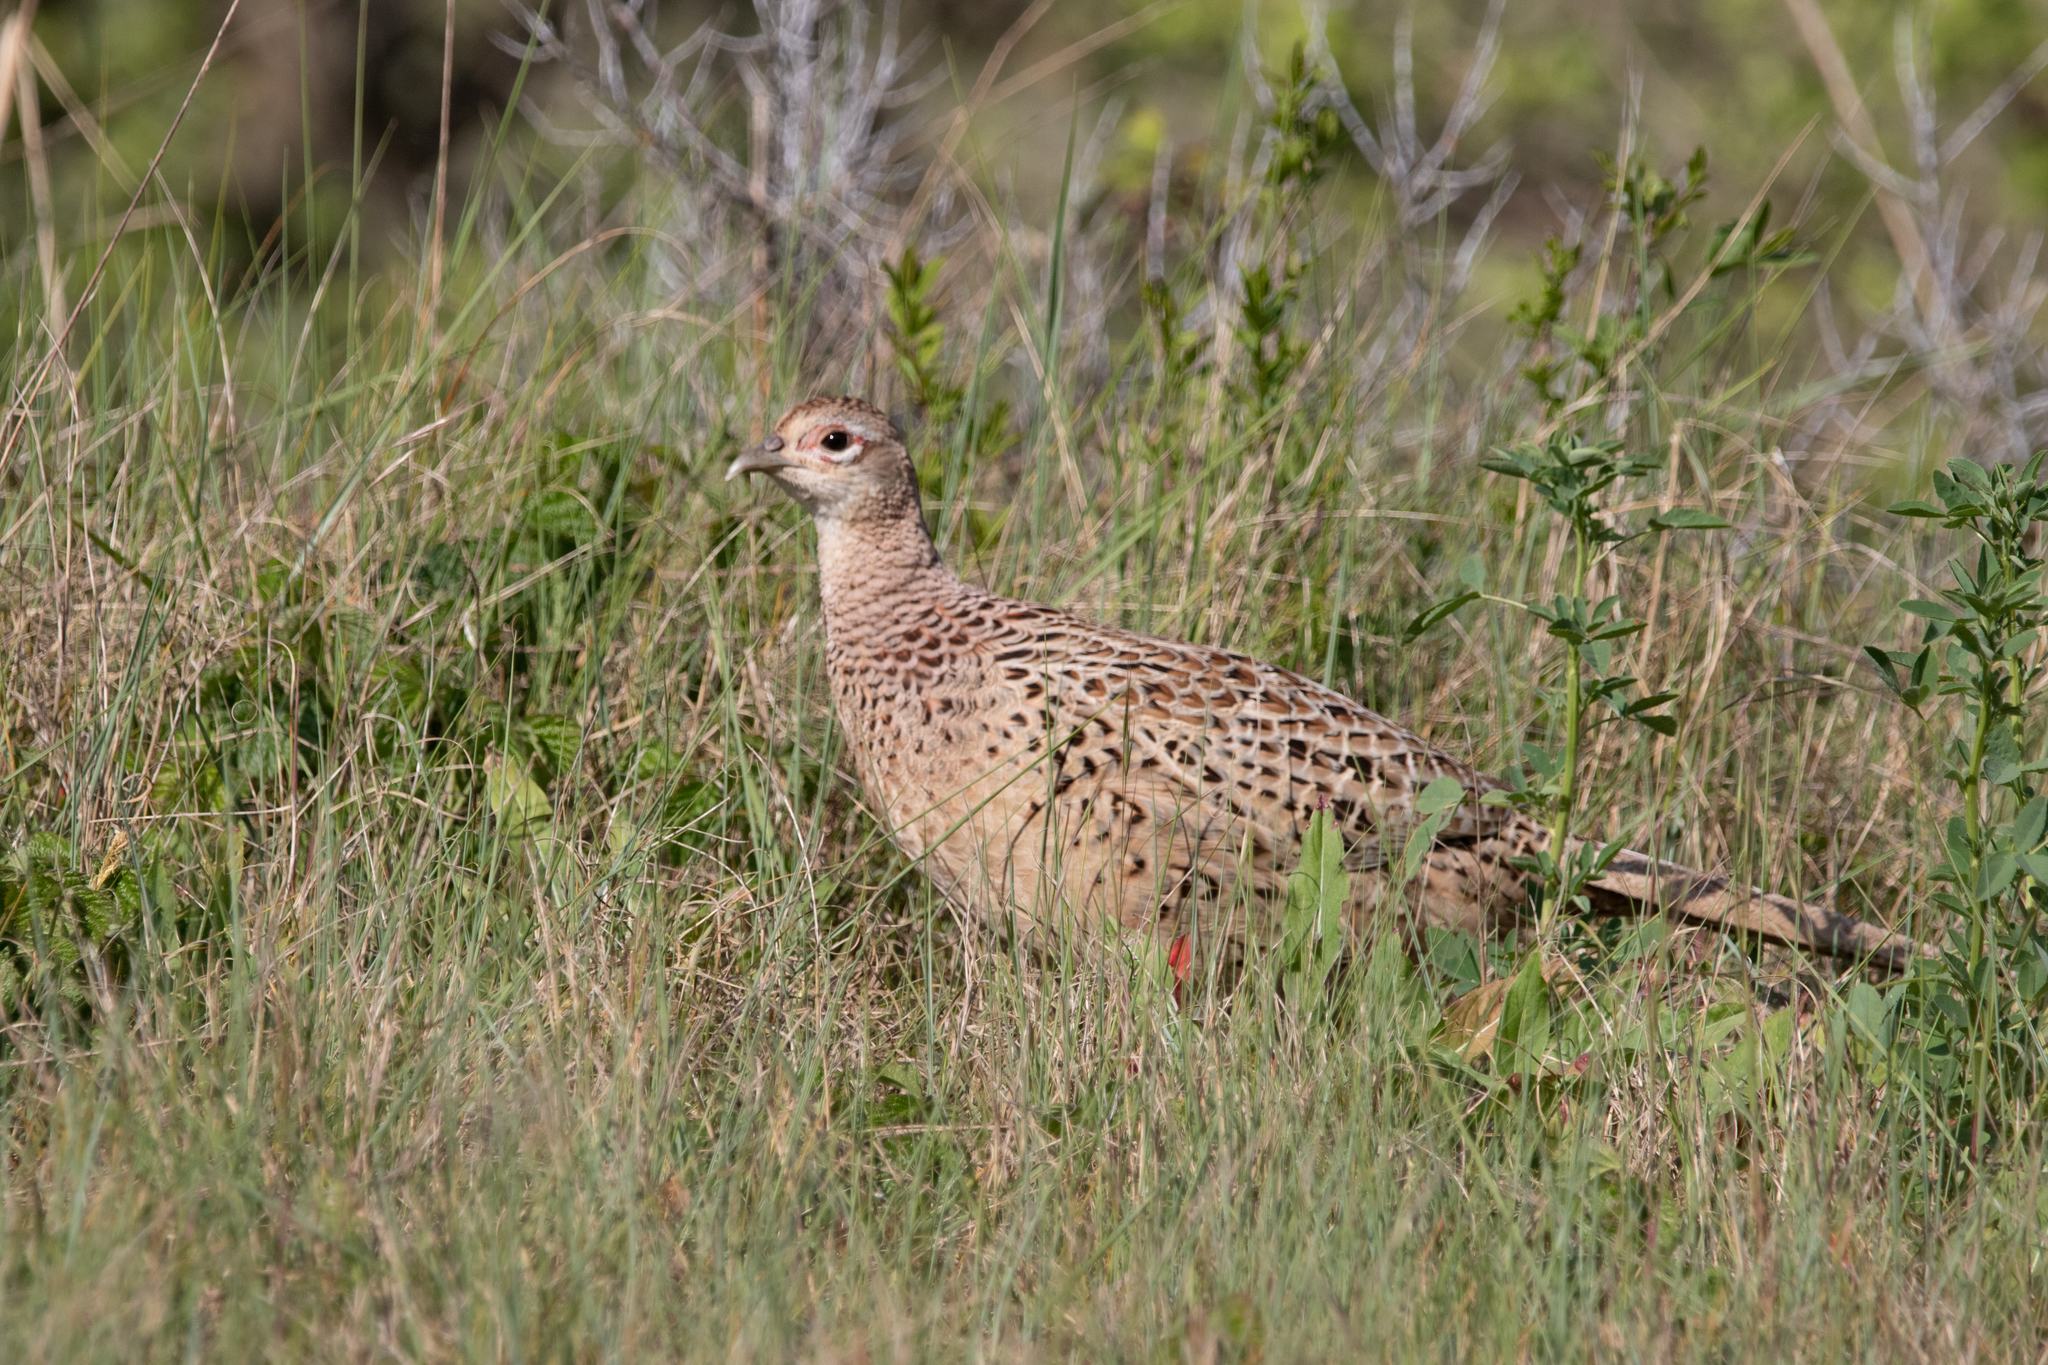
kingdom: Animalia
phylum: Chordata
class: Aves
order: Galliformes
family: Phasianidae
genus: Phasianus
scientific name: Phasianus colchicus
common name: Common pheasant
